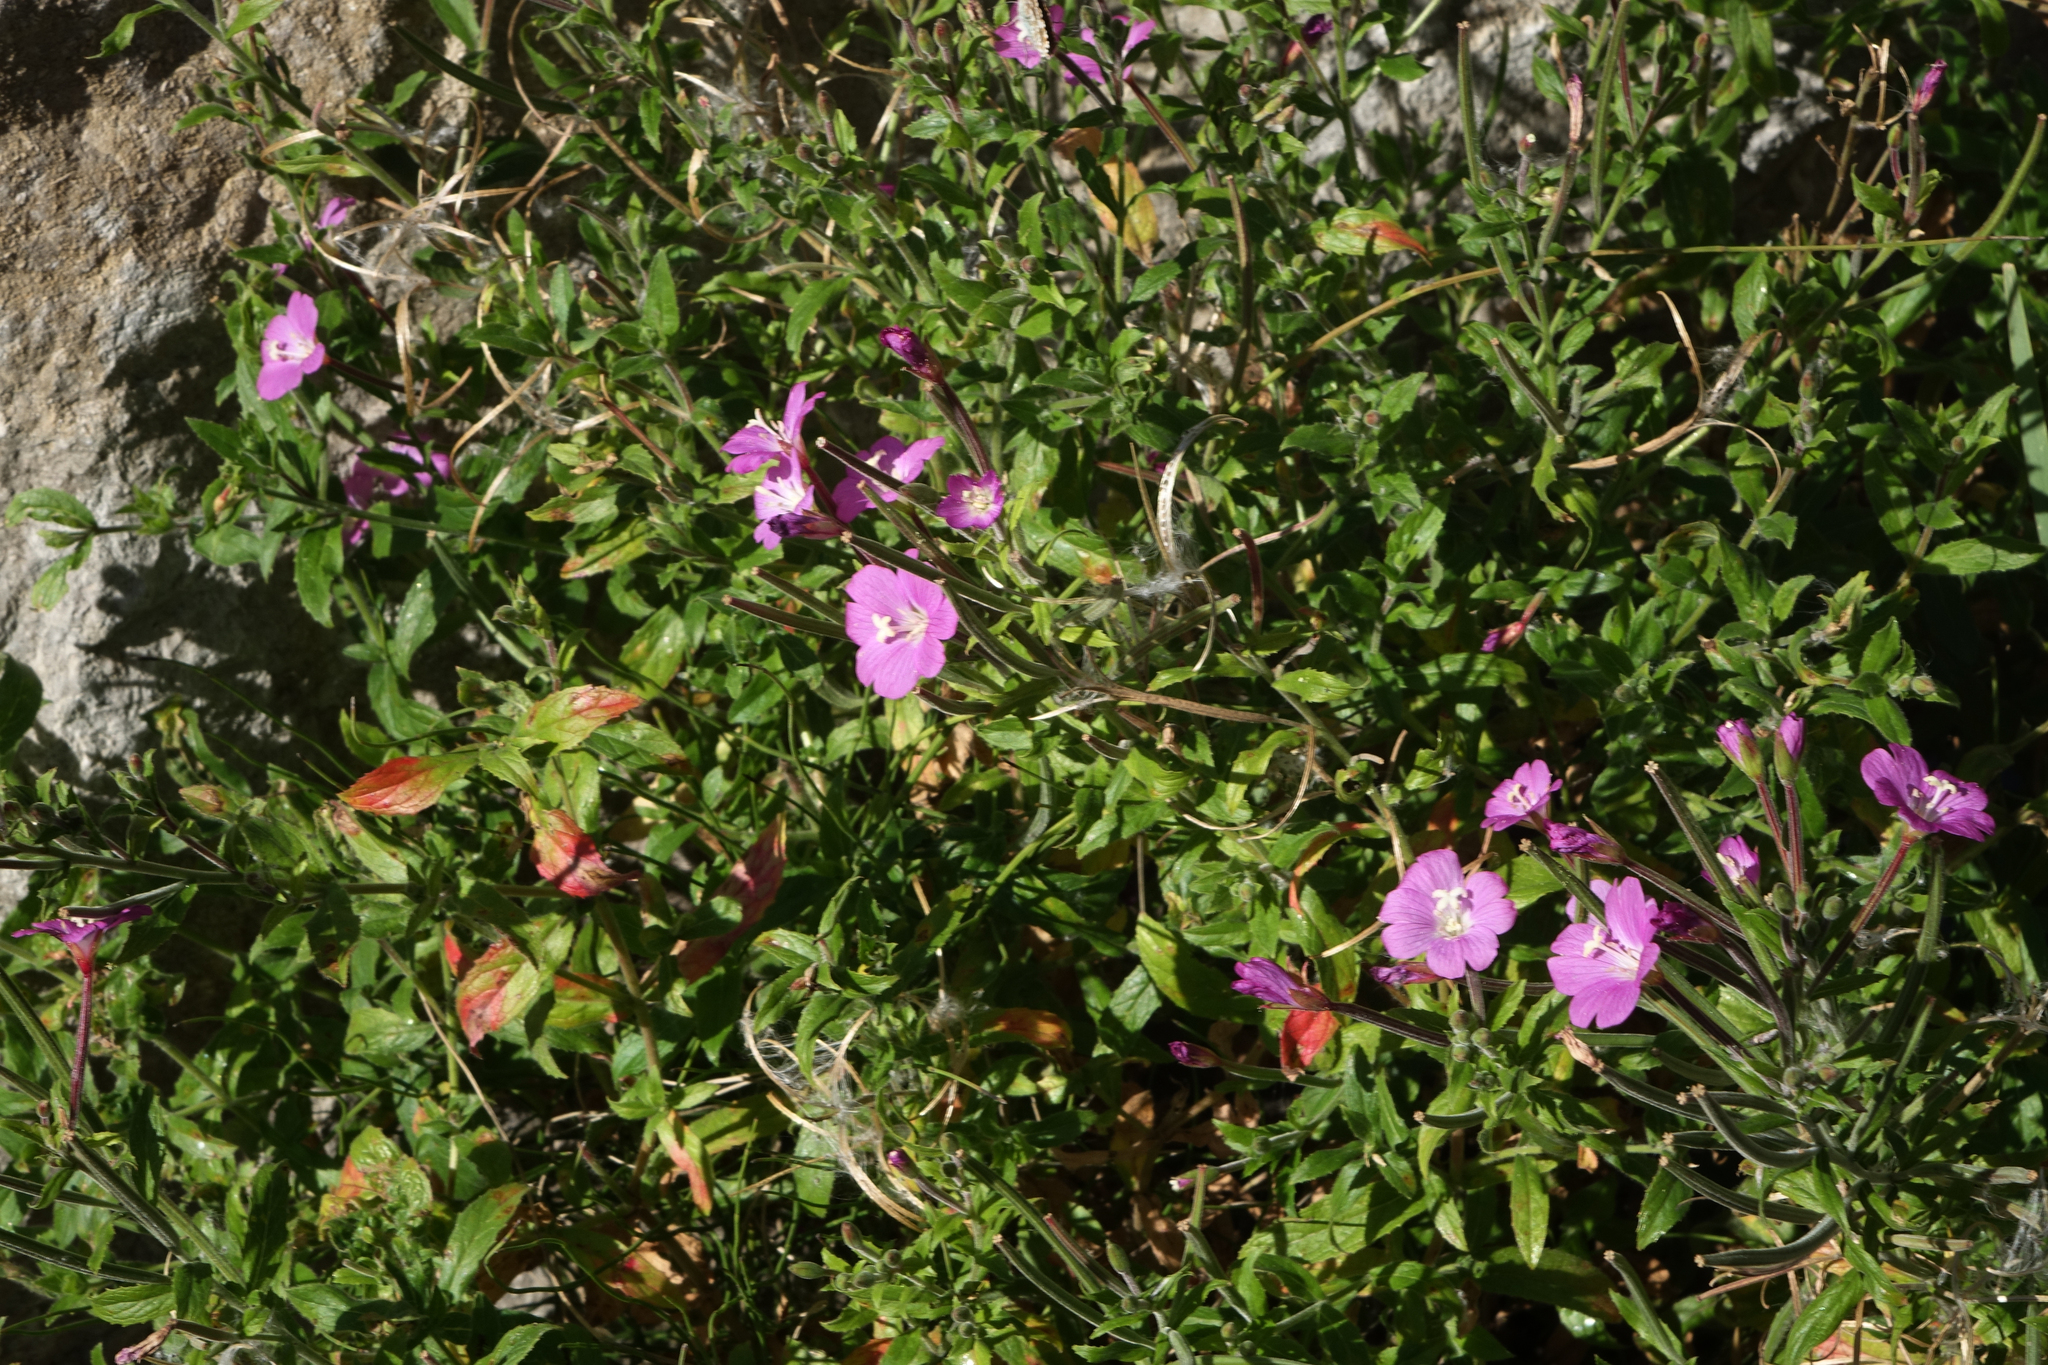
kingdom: Plantae
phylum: Tracheophyta
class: Magnoliopsida
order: Myrtales
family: Onagraceae
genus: Epilobium
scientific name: Epilobium hirsutum
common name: Great willowherb
